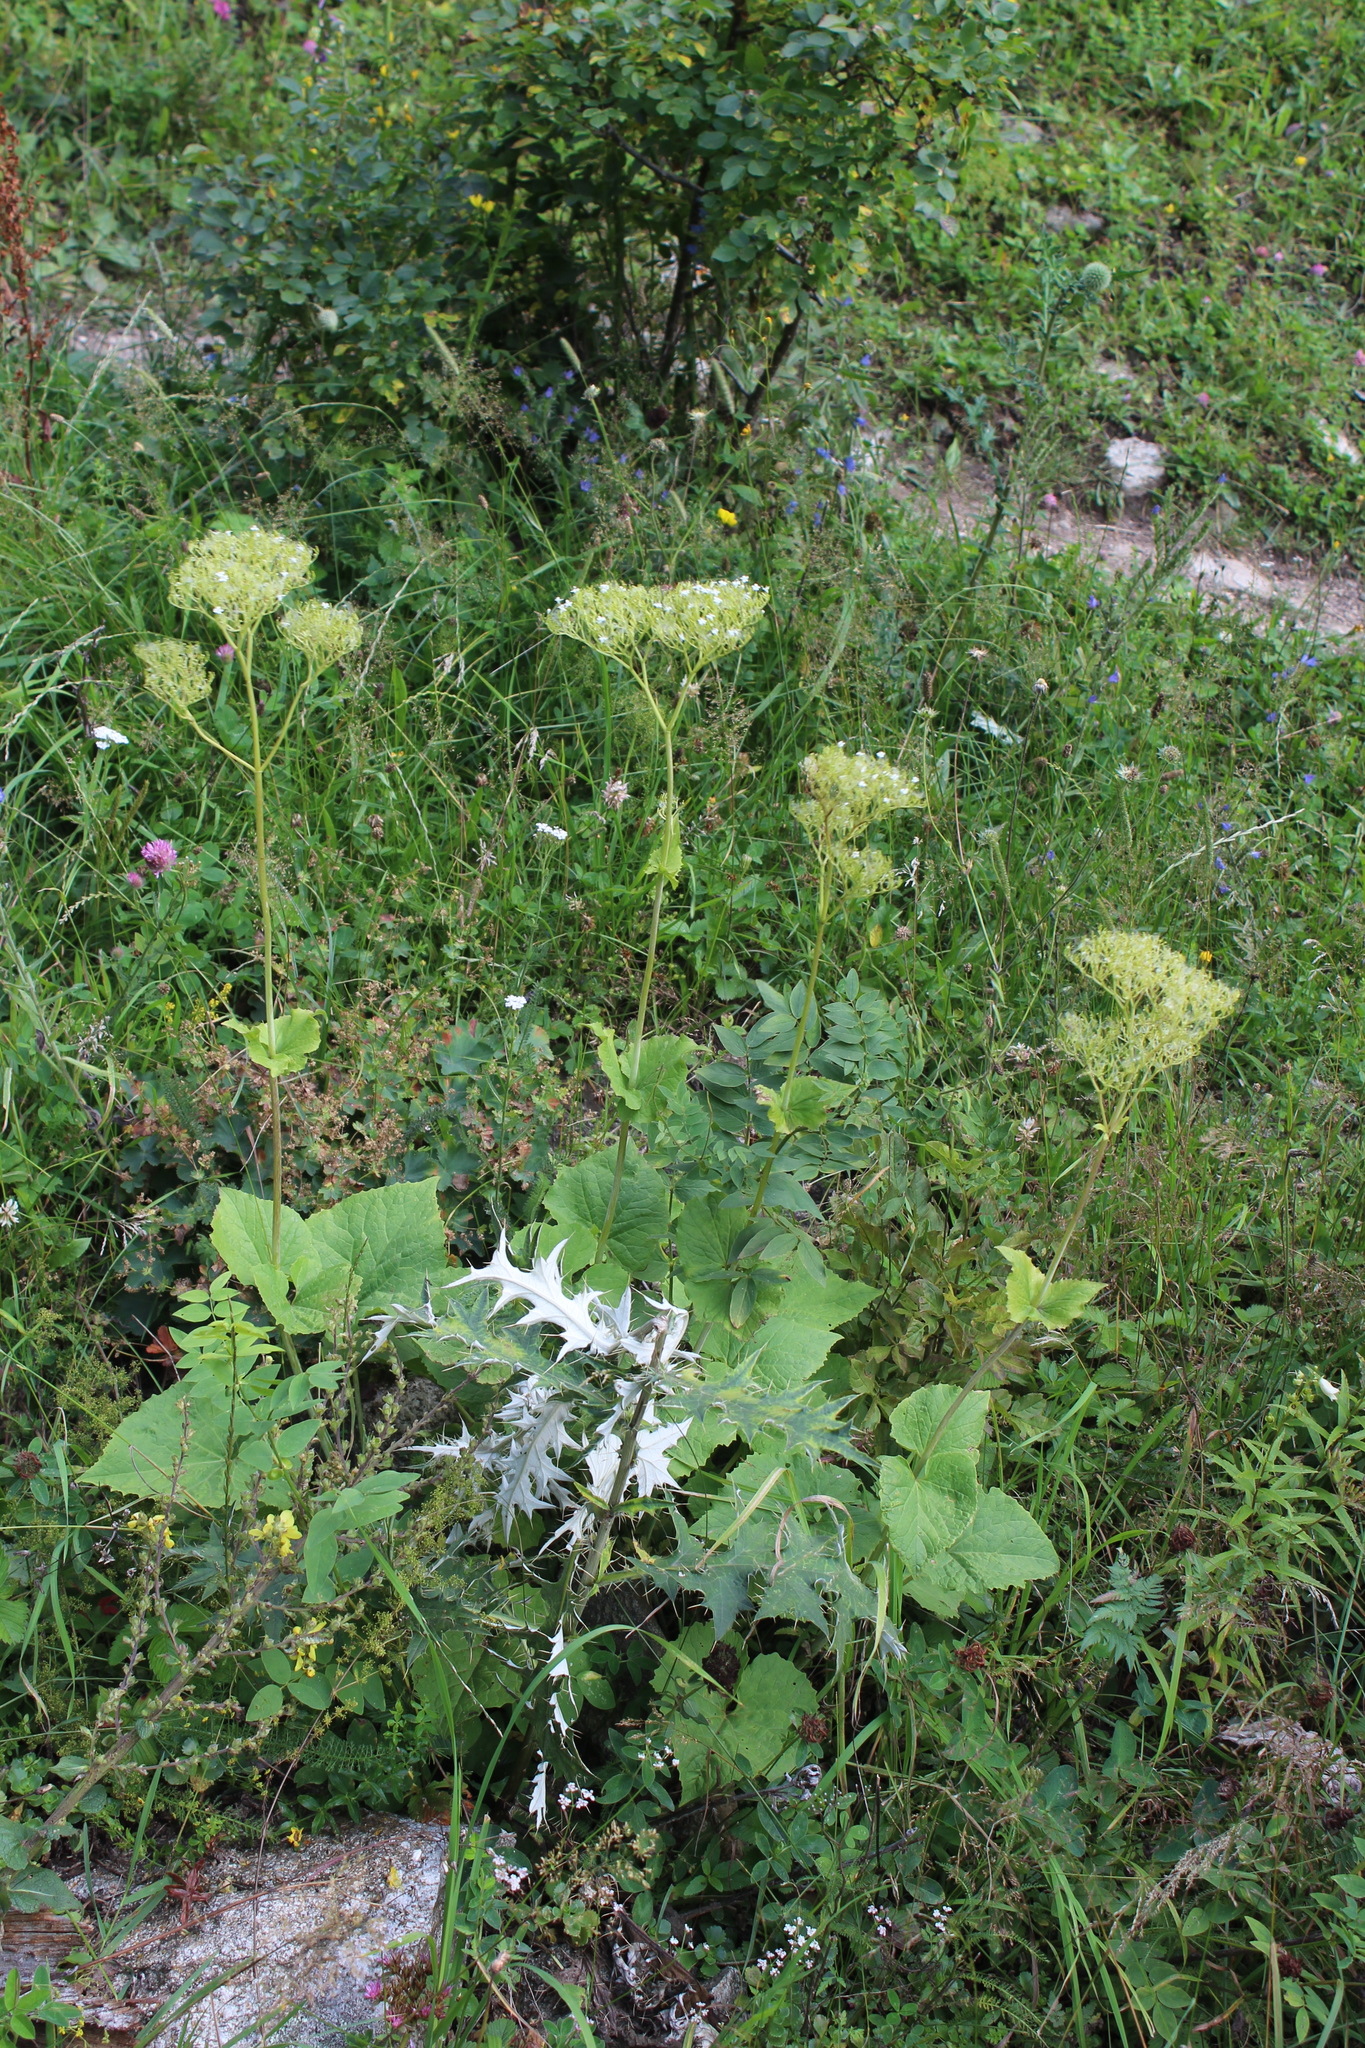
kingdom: Plantae
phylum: Tracheophyta
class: Magnoliopsida
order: Dipsacales
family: Caprifoliaceae
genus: Valeriana
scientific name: Valeriana alliariifolia
